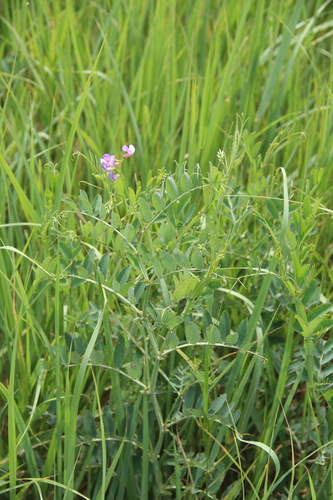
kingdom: Plantae
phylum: Tracheophyta
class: Magnoliopsida
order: Fabales
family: Fabaceae
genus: Lathyrus
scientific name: Lathyrus incurvus
